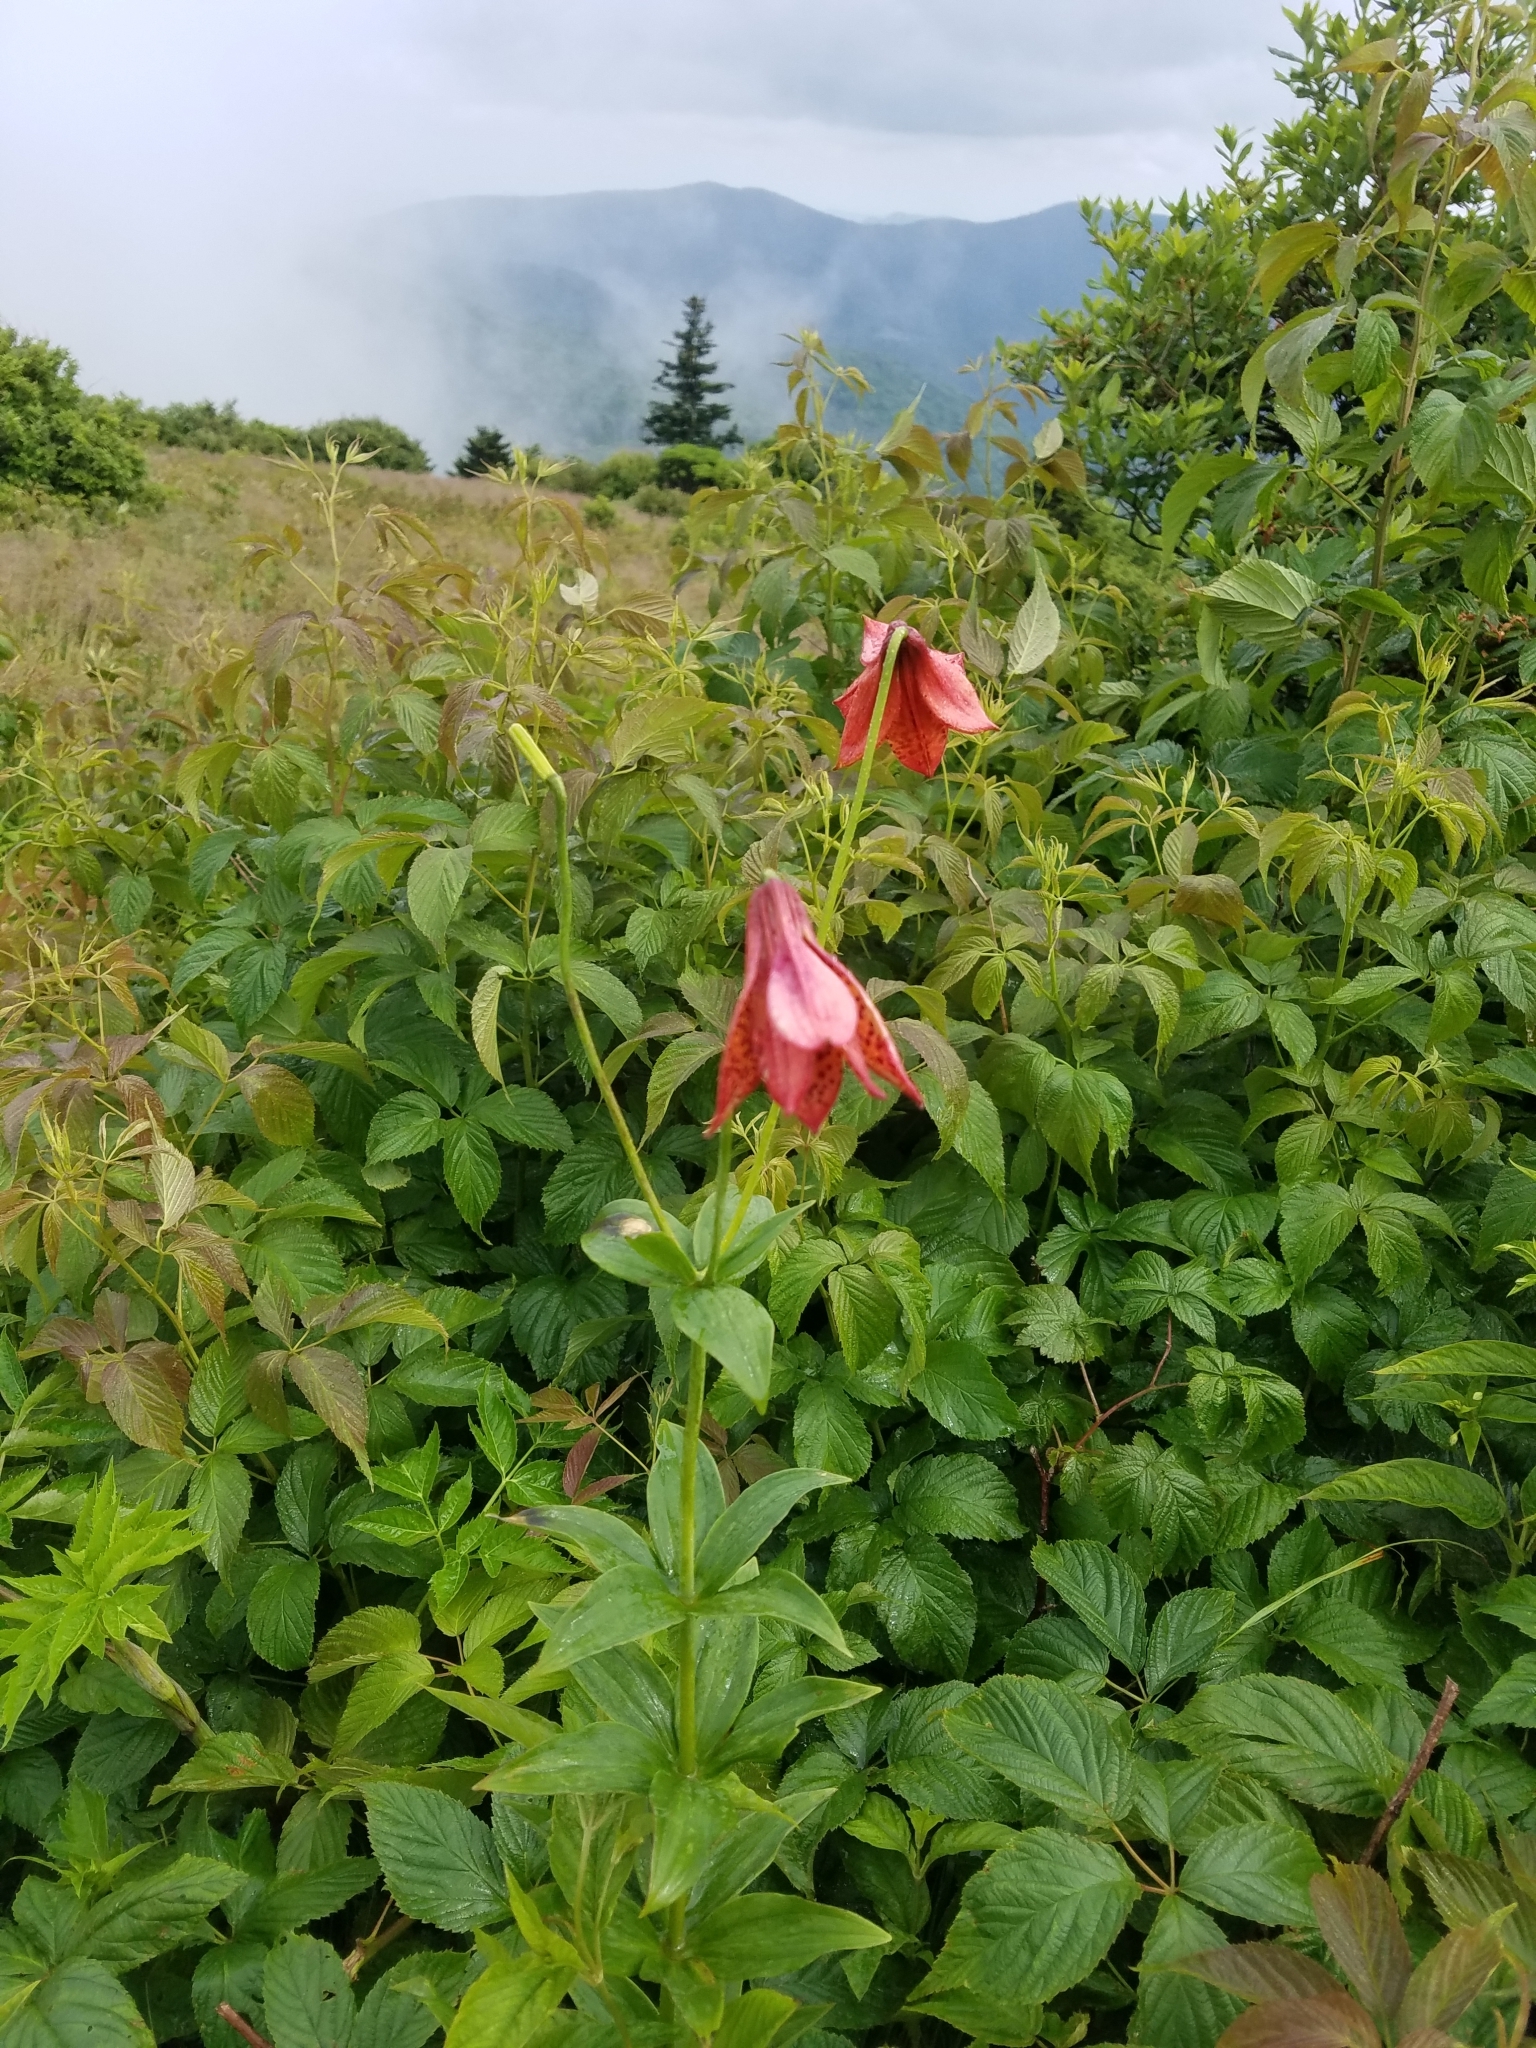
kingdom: Plantae
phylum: Tracheophyta
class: Liliopsida
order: Liliales
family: Liliaceae
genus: Lilium
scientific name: Lilium grayi
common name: Gray's lily
